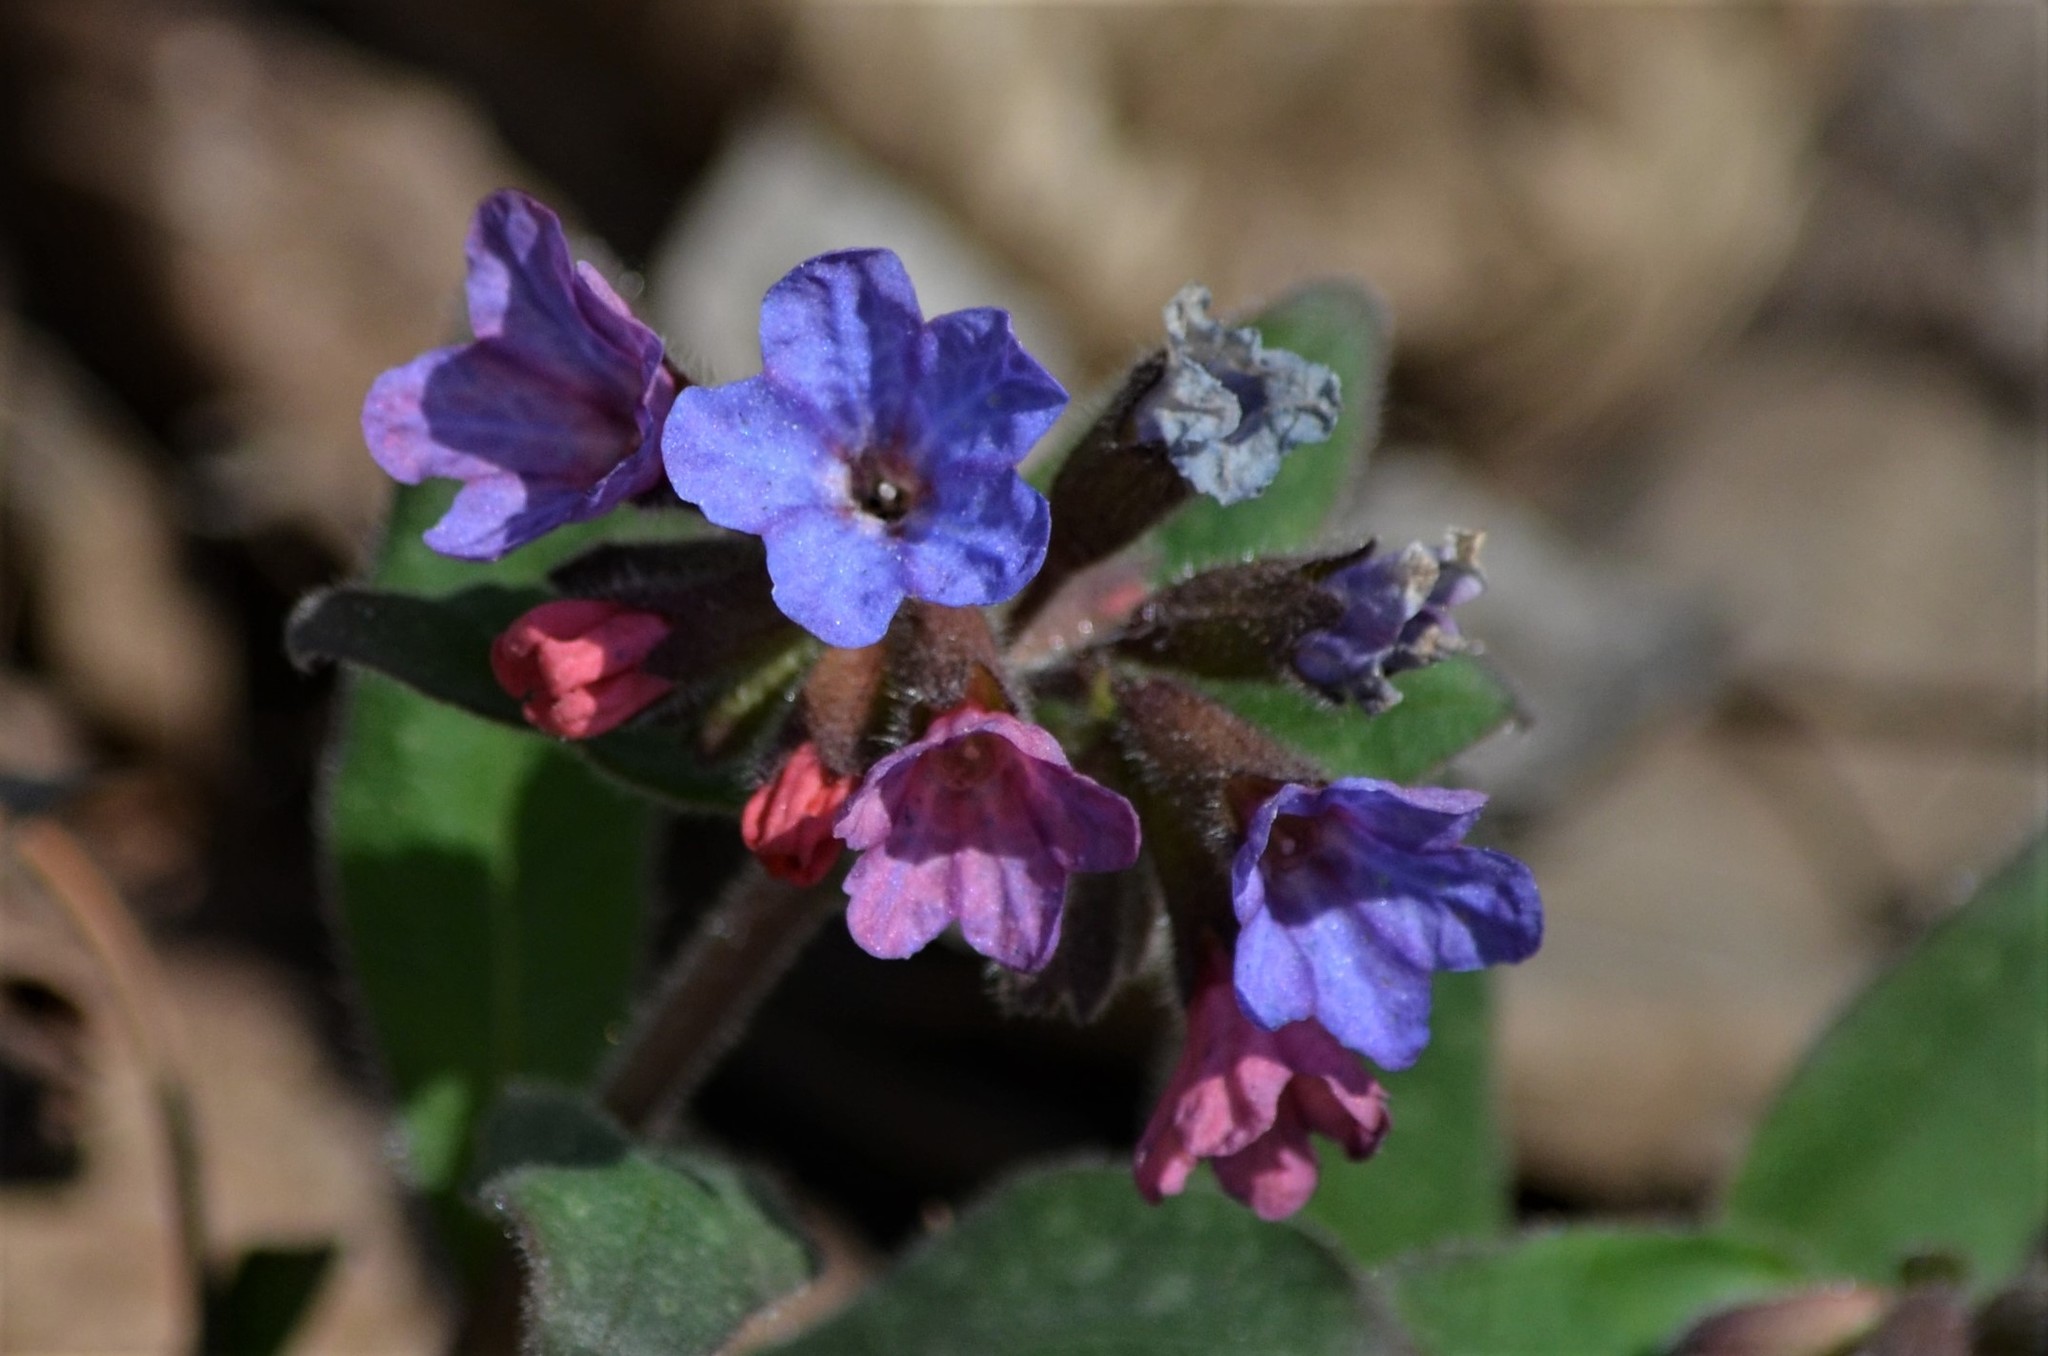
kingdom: Plantae
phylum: Tracheophyta
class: Magnoliopsida
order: Boraginales
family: Boraginaceae
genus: Pulmonaria
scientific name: Pulmonaria officinalis
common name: Lungwort
